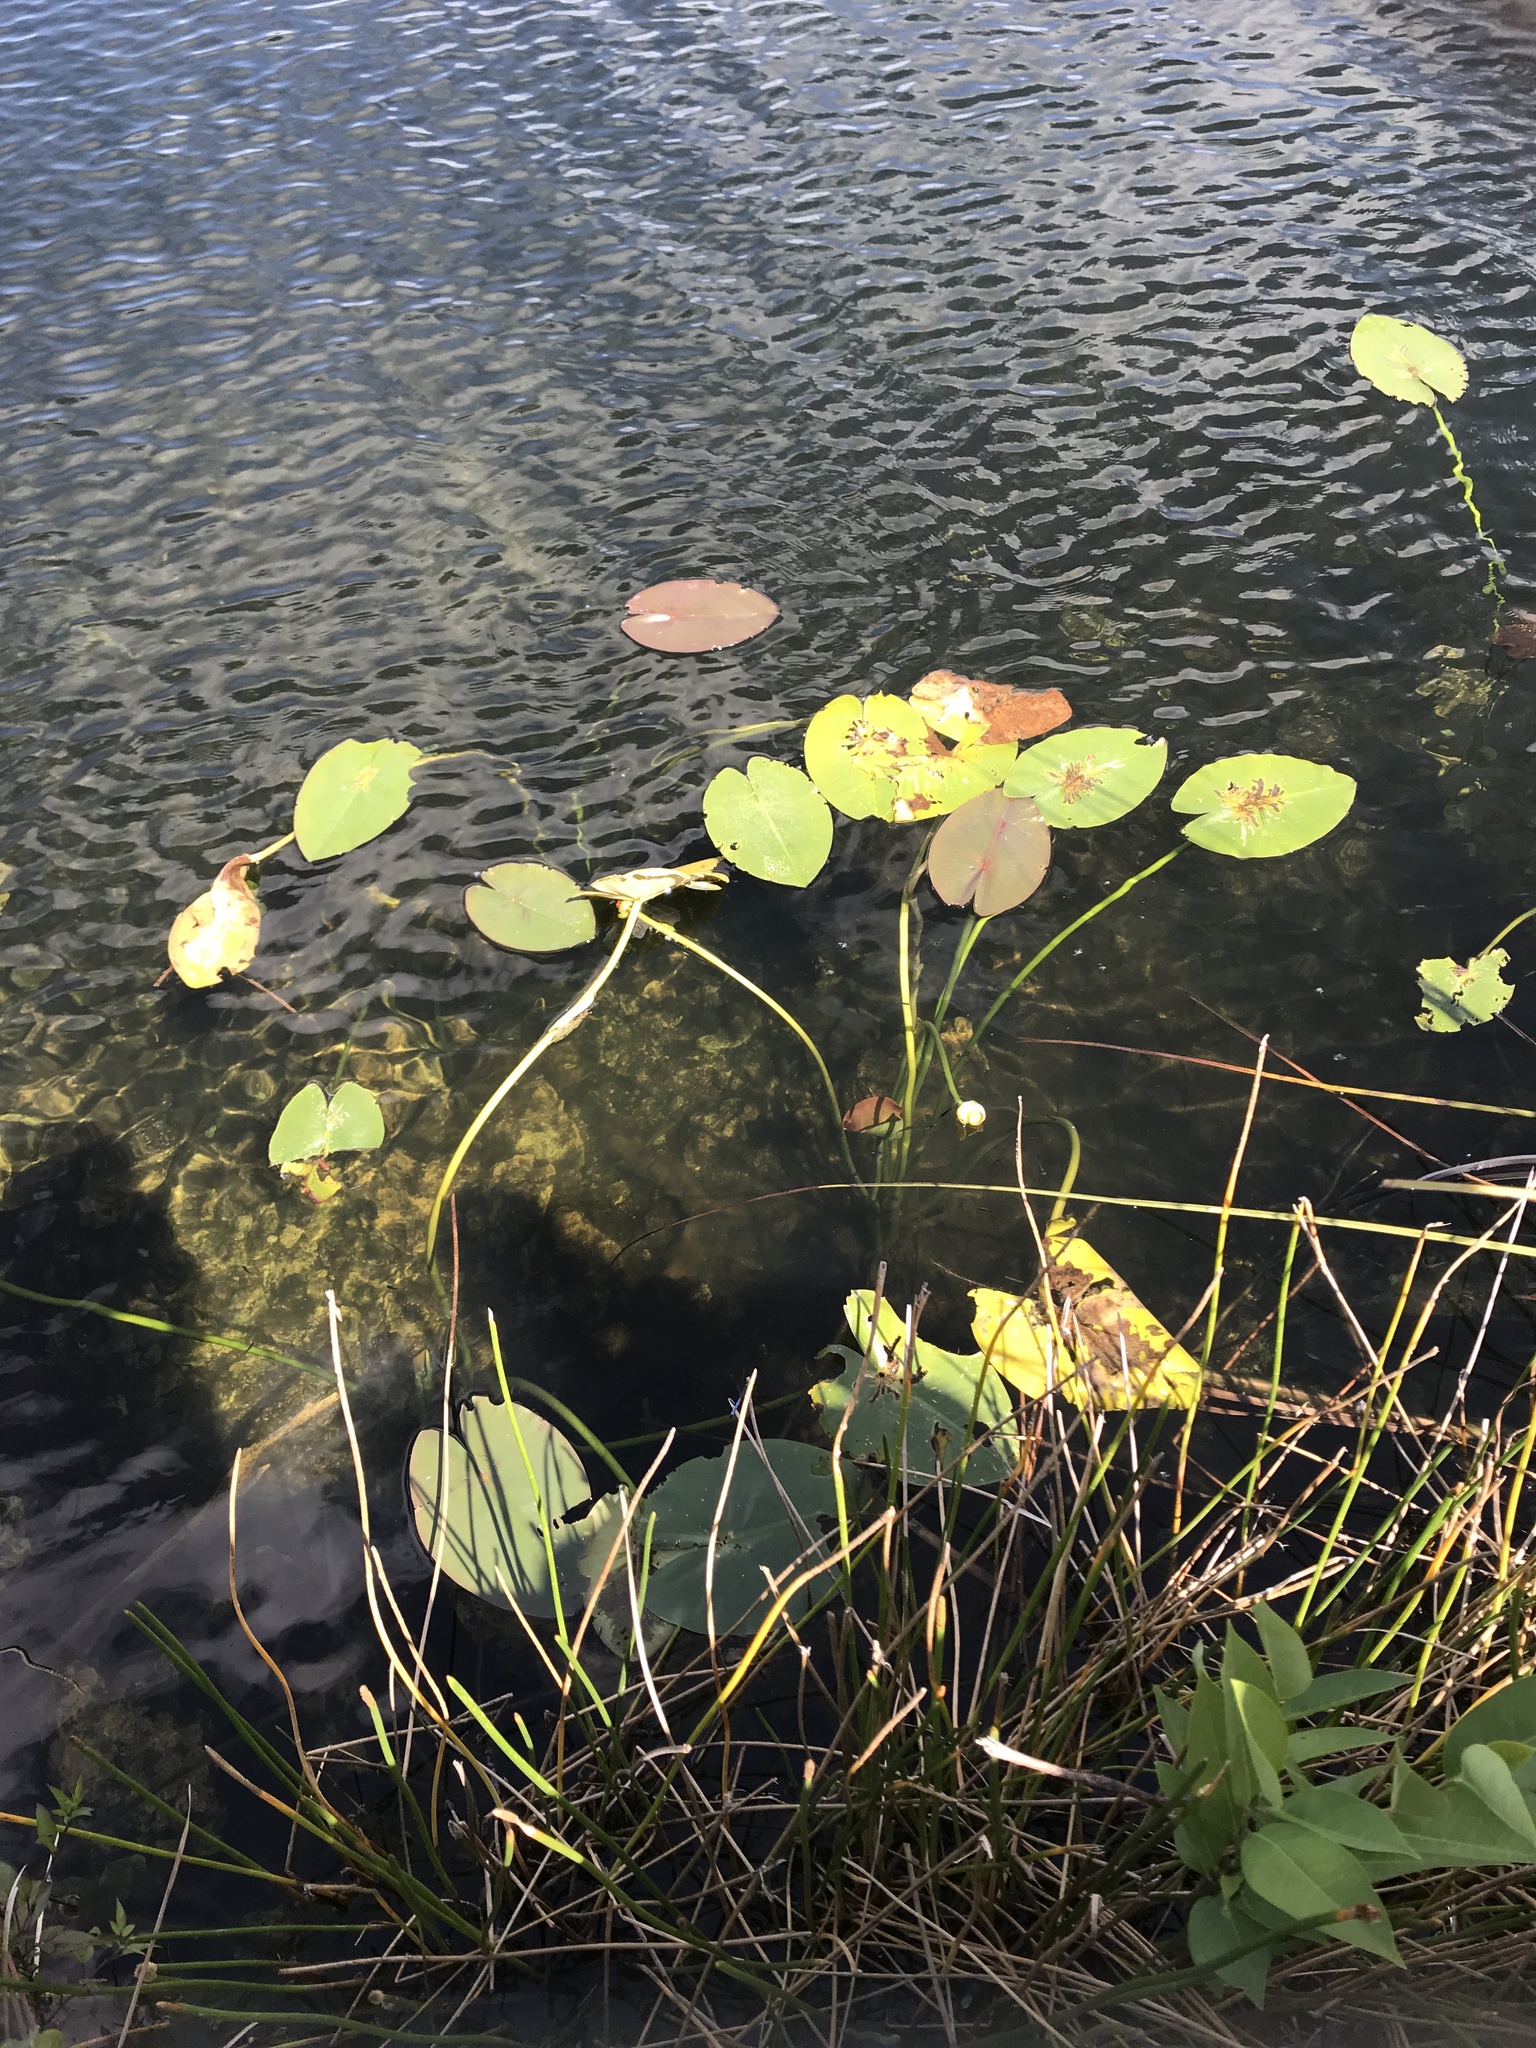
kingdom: Plantae
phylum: Tracheophyta
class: Magnoliopsida
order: Nymphaeales
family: Nymphaeaceae
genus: Nuphar
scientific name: Nuphar advena
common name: Spatter-dock
